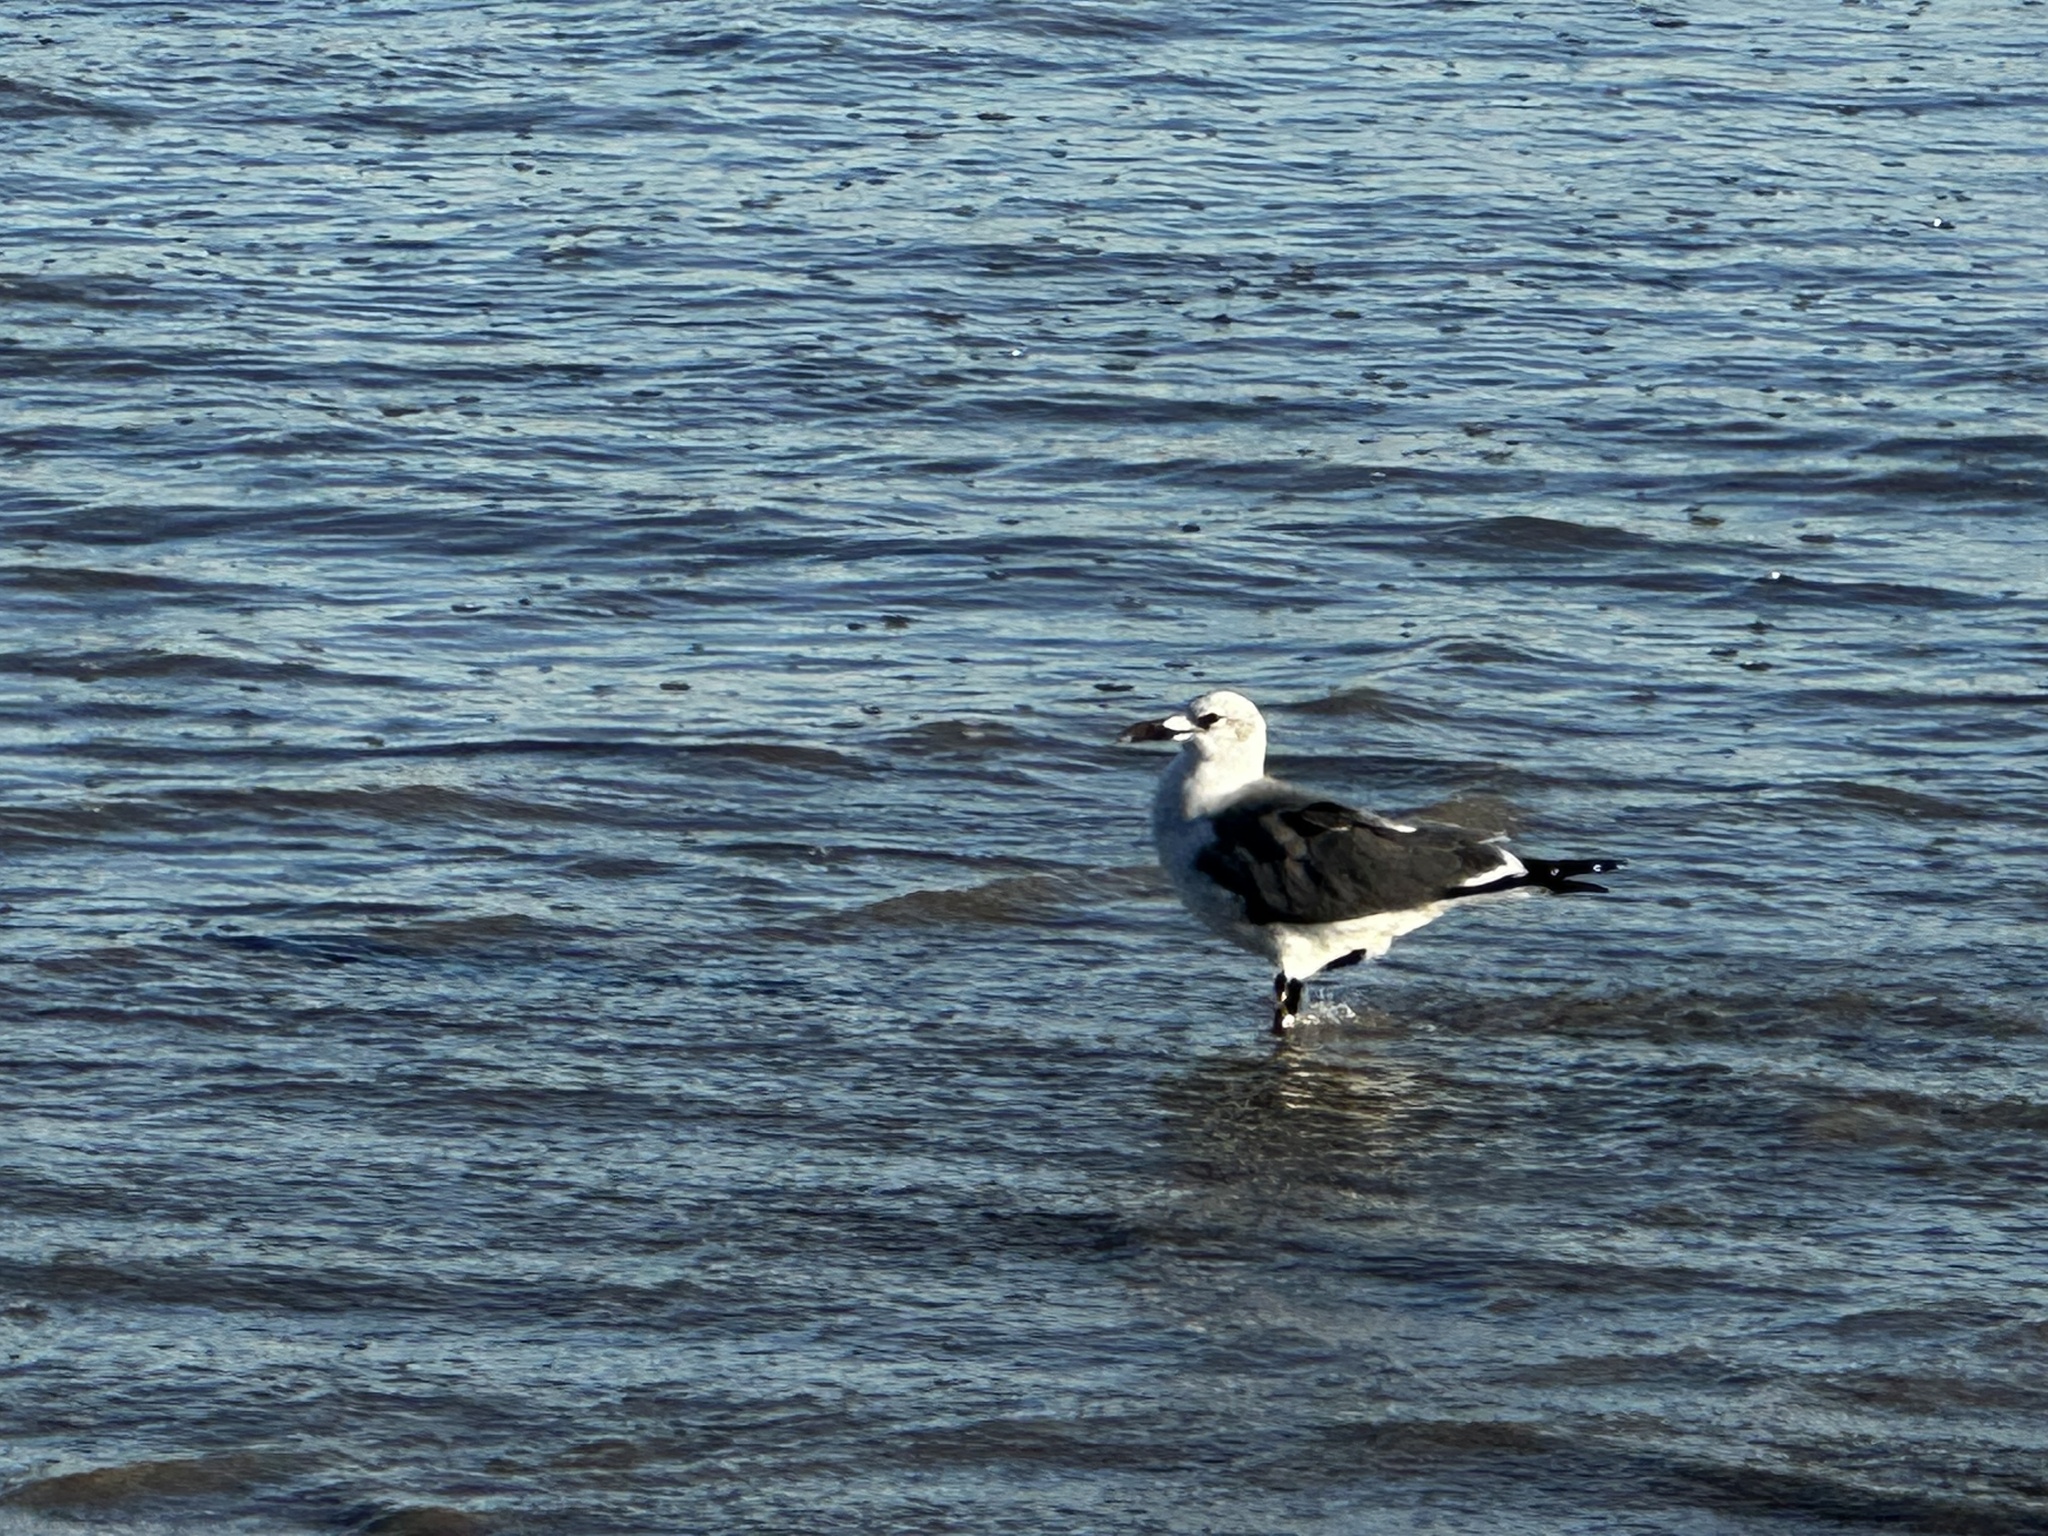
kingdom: Animalia
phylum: Chordata
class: Aves
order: Charadriiformes
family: Laridae
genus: Leucophaeus
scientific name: Leucophaeus atricilla
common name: Laughing gull
